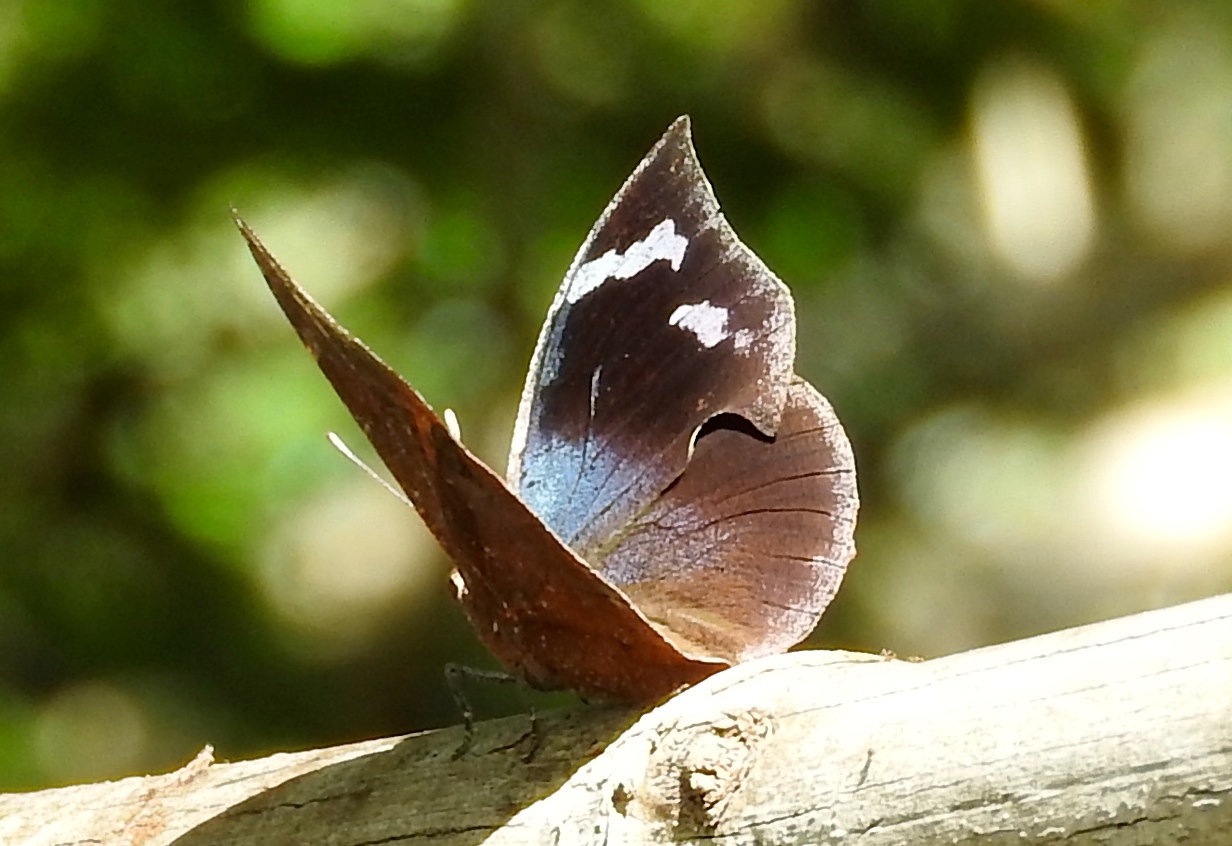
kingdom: Animalia
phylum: Arthropoda
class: Insecta
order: Lepidoptera
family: Nymphalidae
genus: Memphis
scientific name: Memphis forreri
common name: Forrer's leafwing
